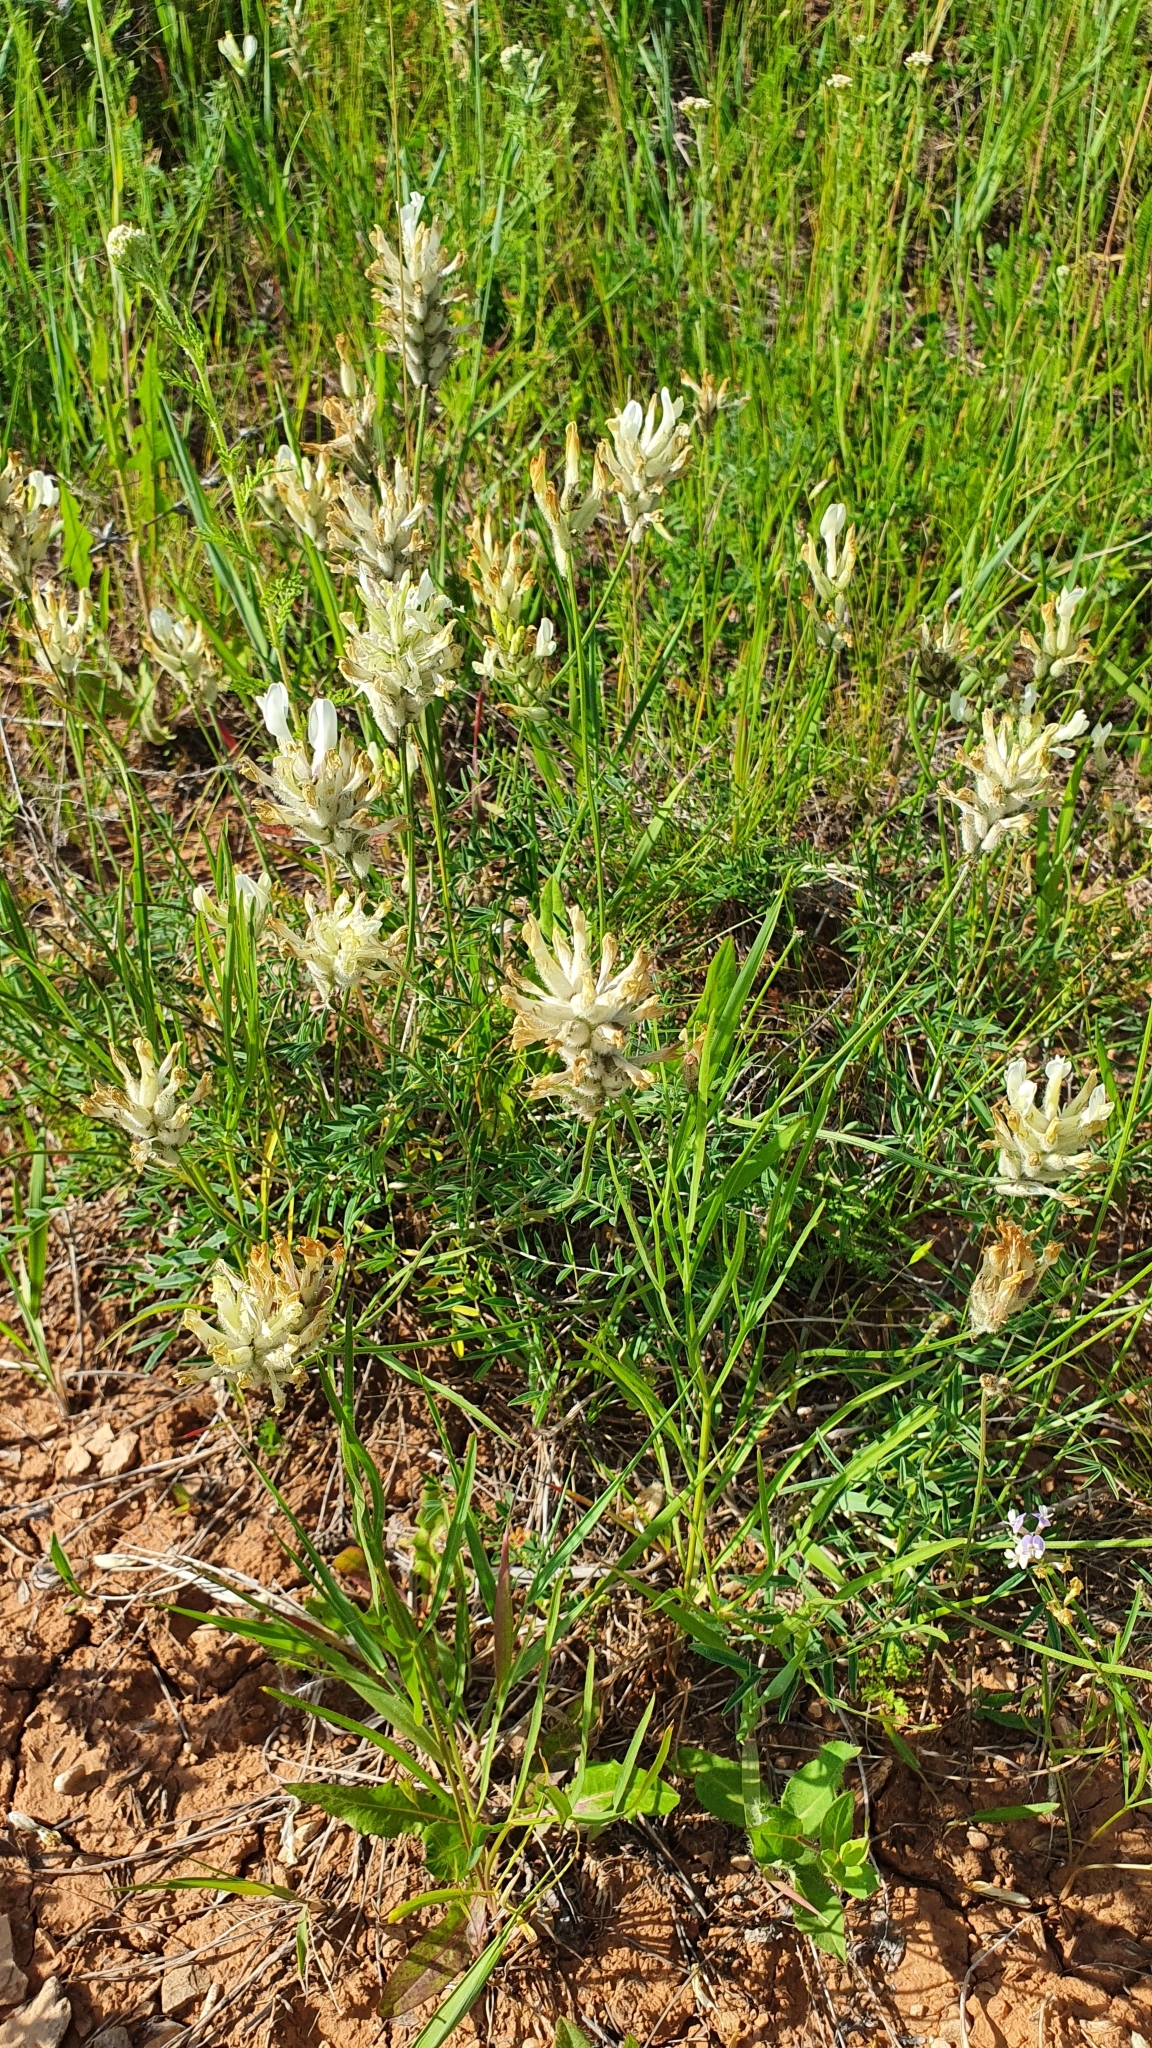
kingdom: Plantae
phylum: Tracheophyta
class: Magnoliopsida
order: Fabales
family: Fabaceae
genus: Astragalus
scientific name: Astragalus zingeri
